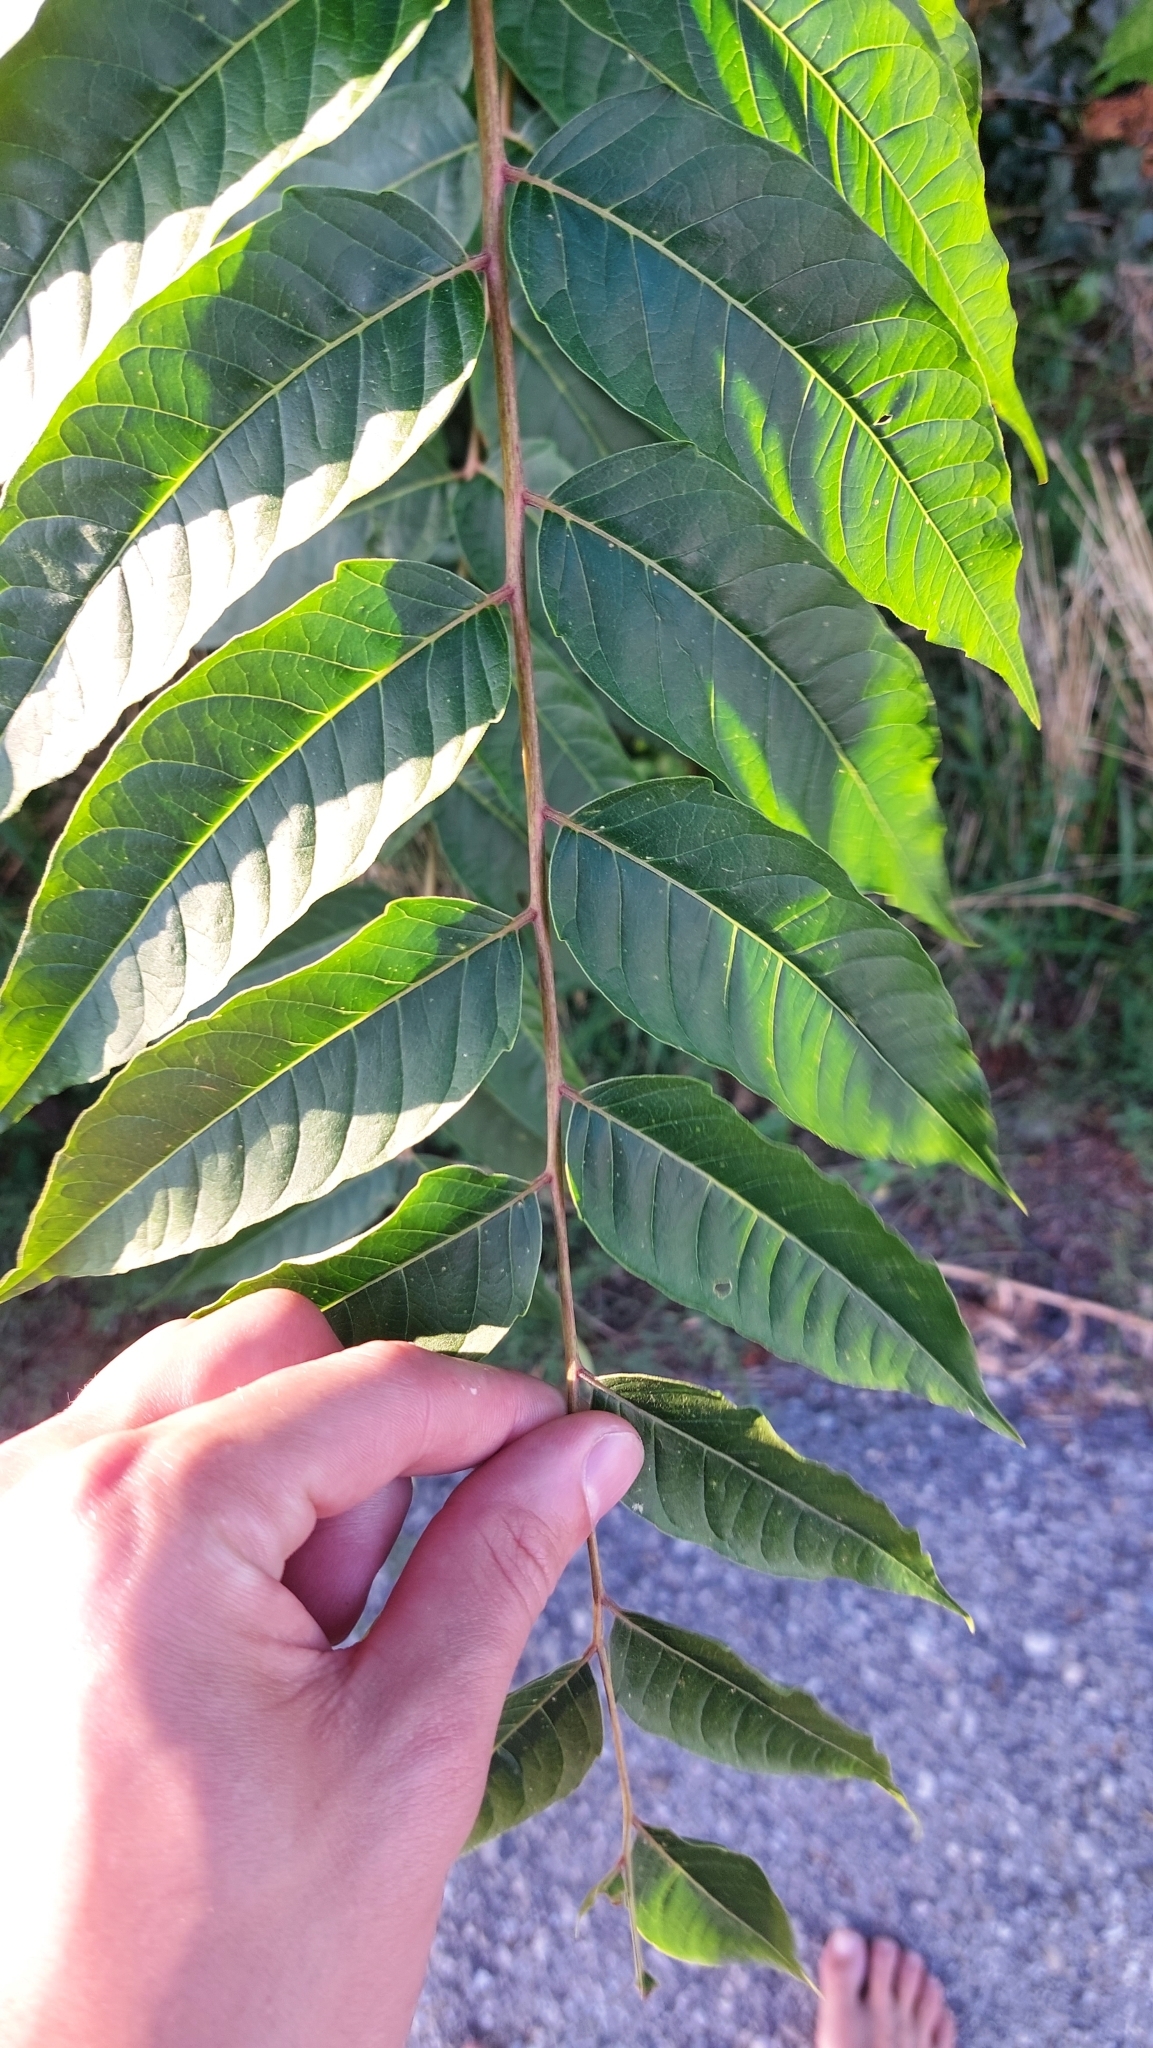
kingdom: Plantae
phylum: Tracheophyta
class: Magnoliopsida
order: Sapindales
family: Simaroubaceae
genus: Ailanthus
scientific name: Ailanthus altissima
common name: Tree-of-heaven
